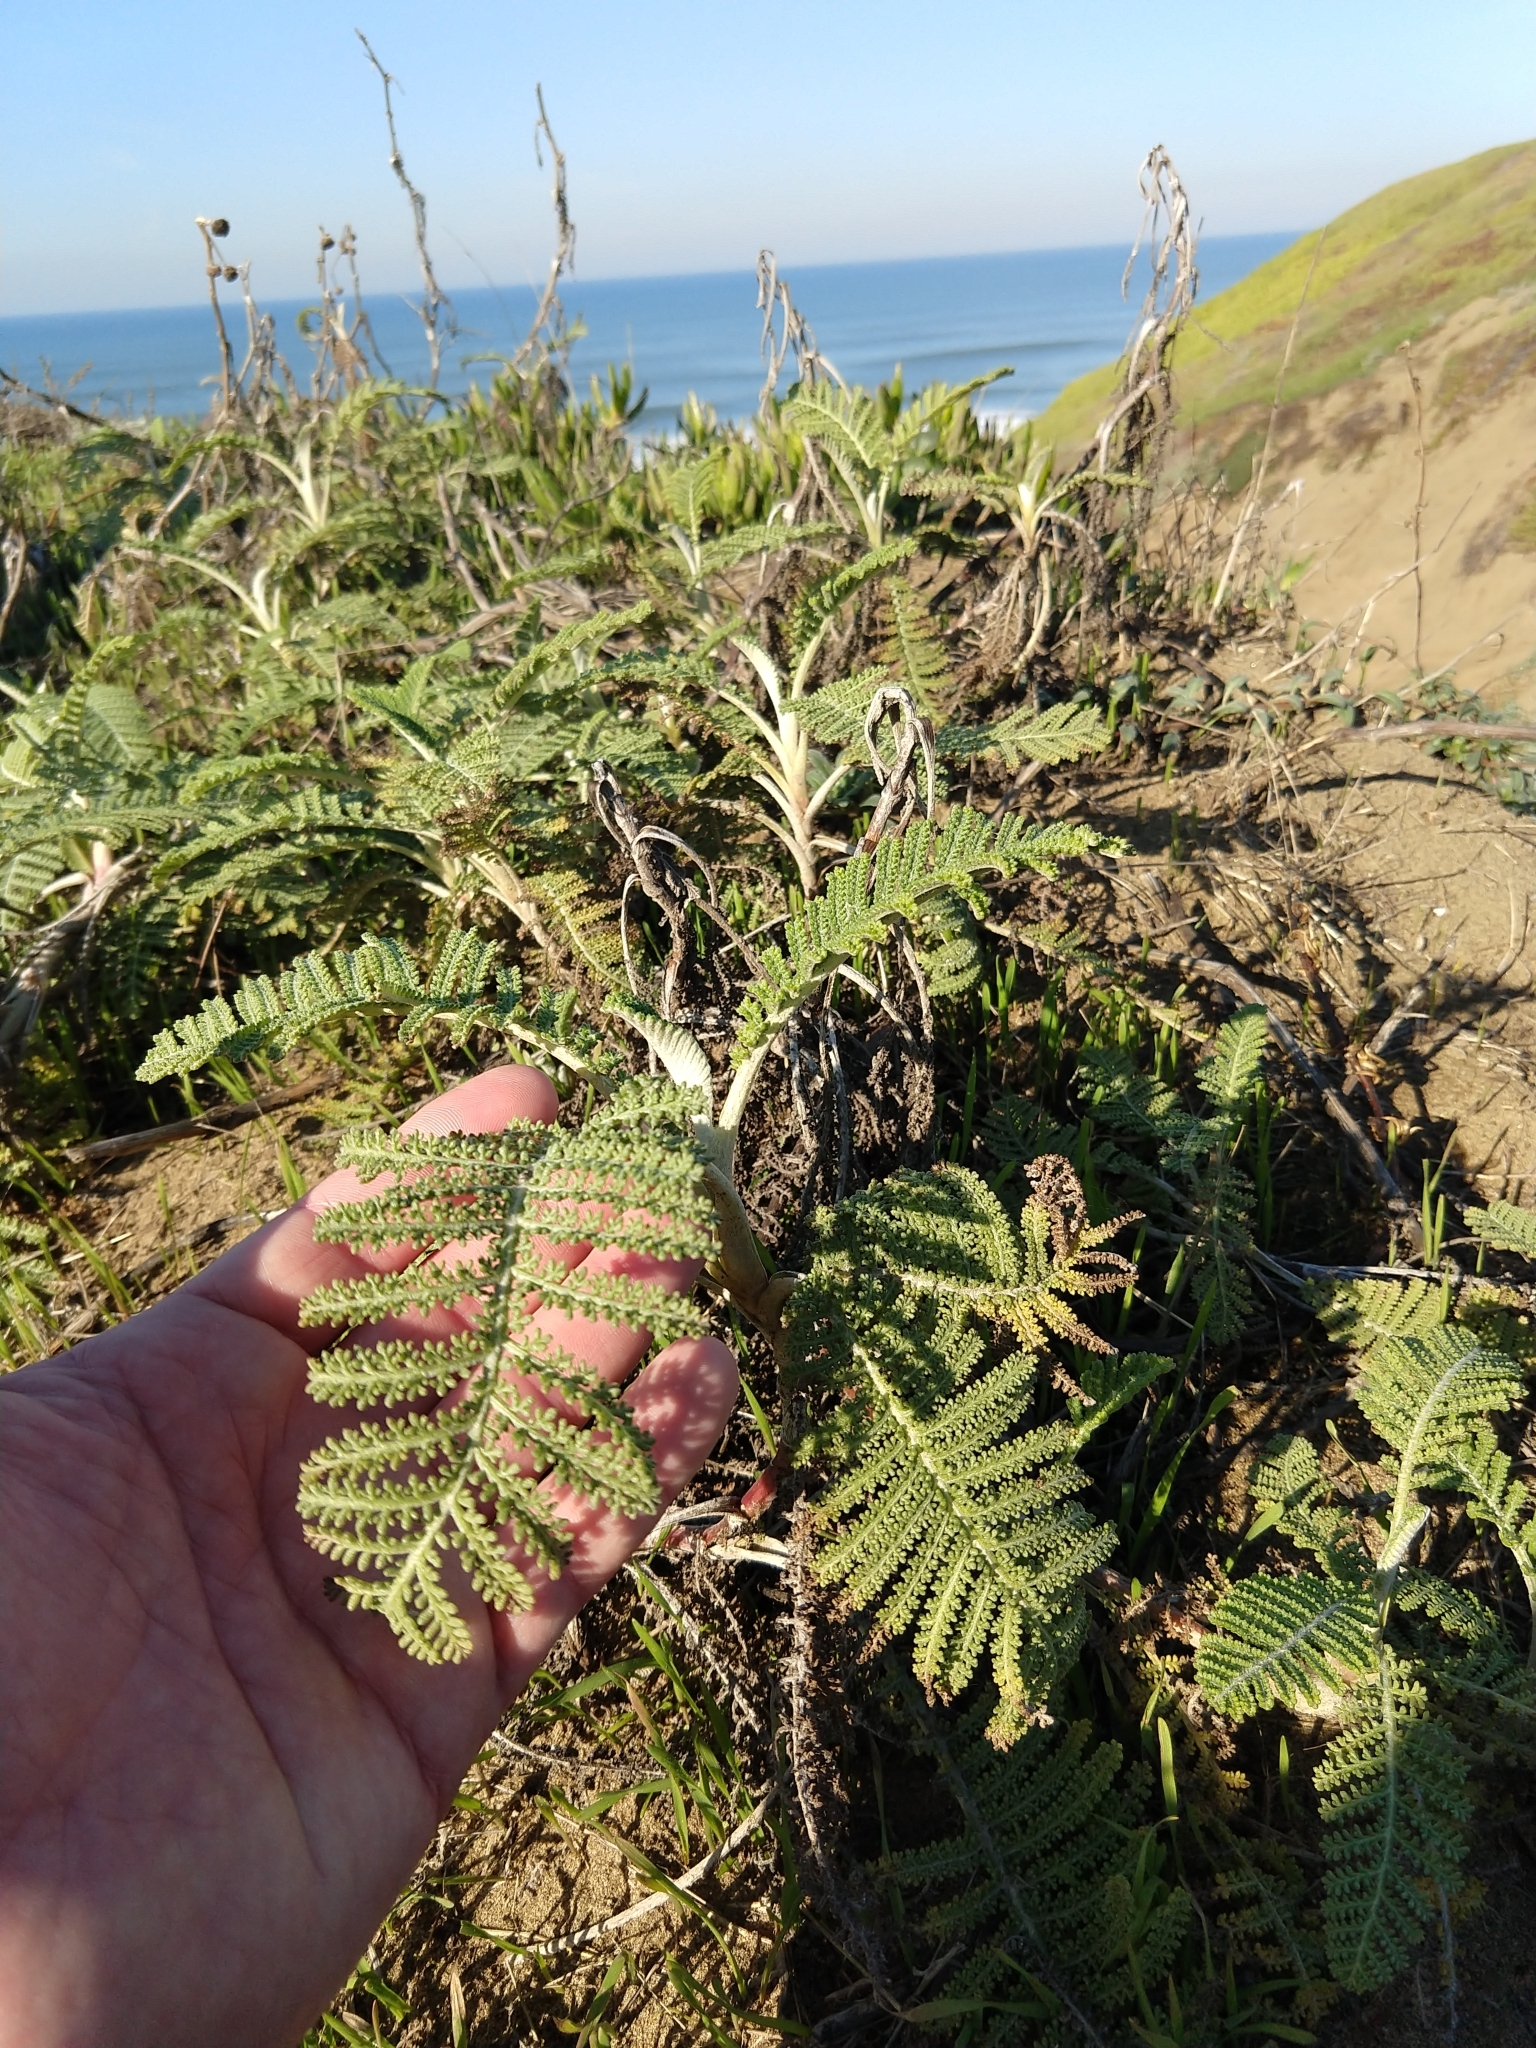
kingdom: Plantae
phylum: Tracheophyta
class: Magnoliopsida
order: Asterales
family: Asteraceae
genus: Tanacetum
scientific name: Tanacetum bipinnatum
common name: Dwarf tansy
